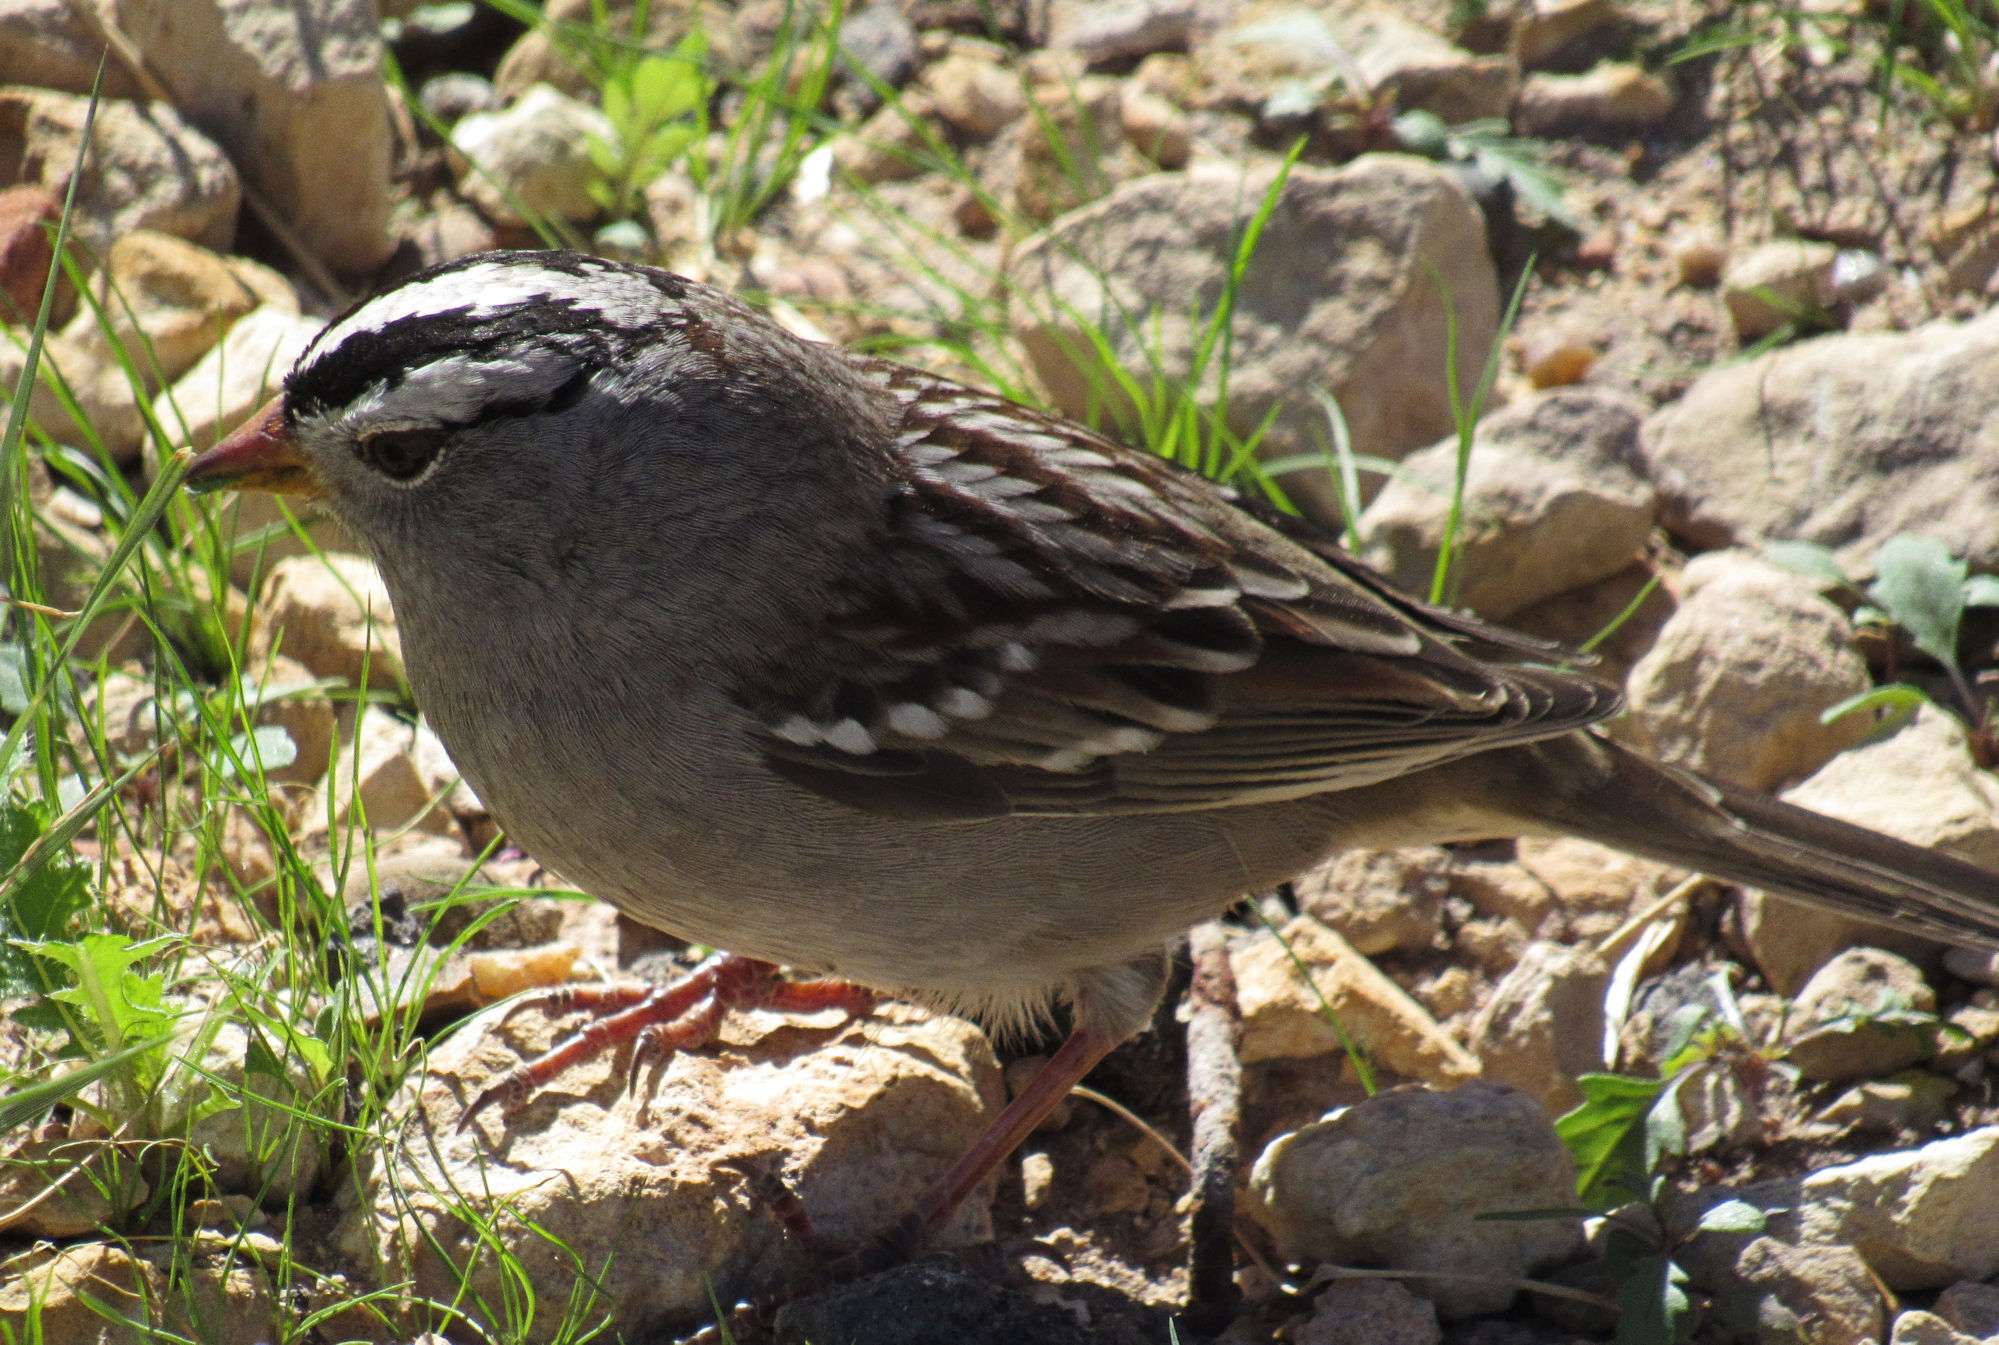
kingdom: Animalia
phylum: Chordata
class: Aves
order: Passeriformes
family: Passerellidae
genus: Zonotrichia
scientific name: Zonotrichia leucophrys
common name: White-crowned sparrow
